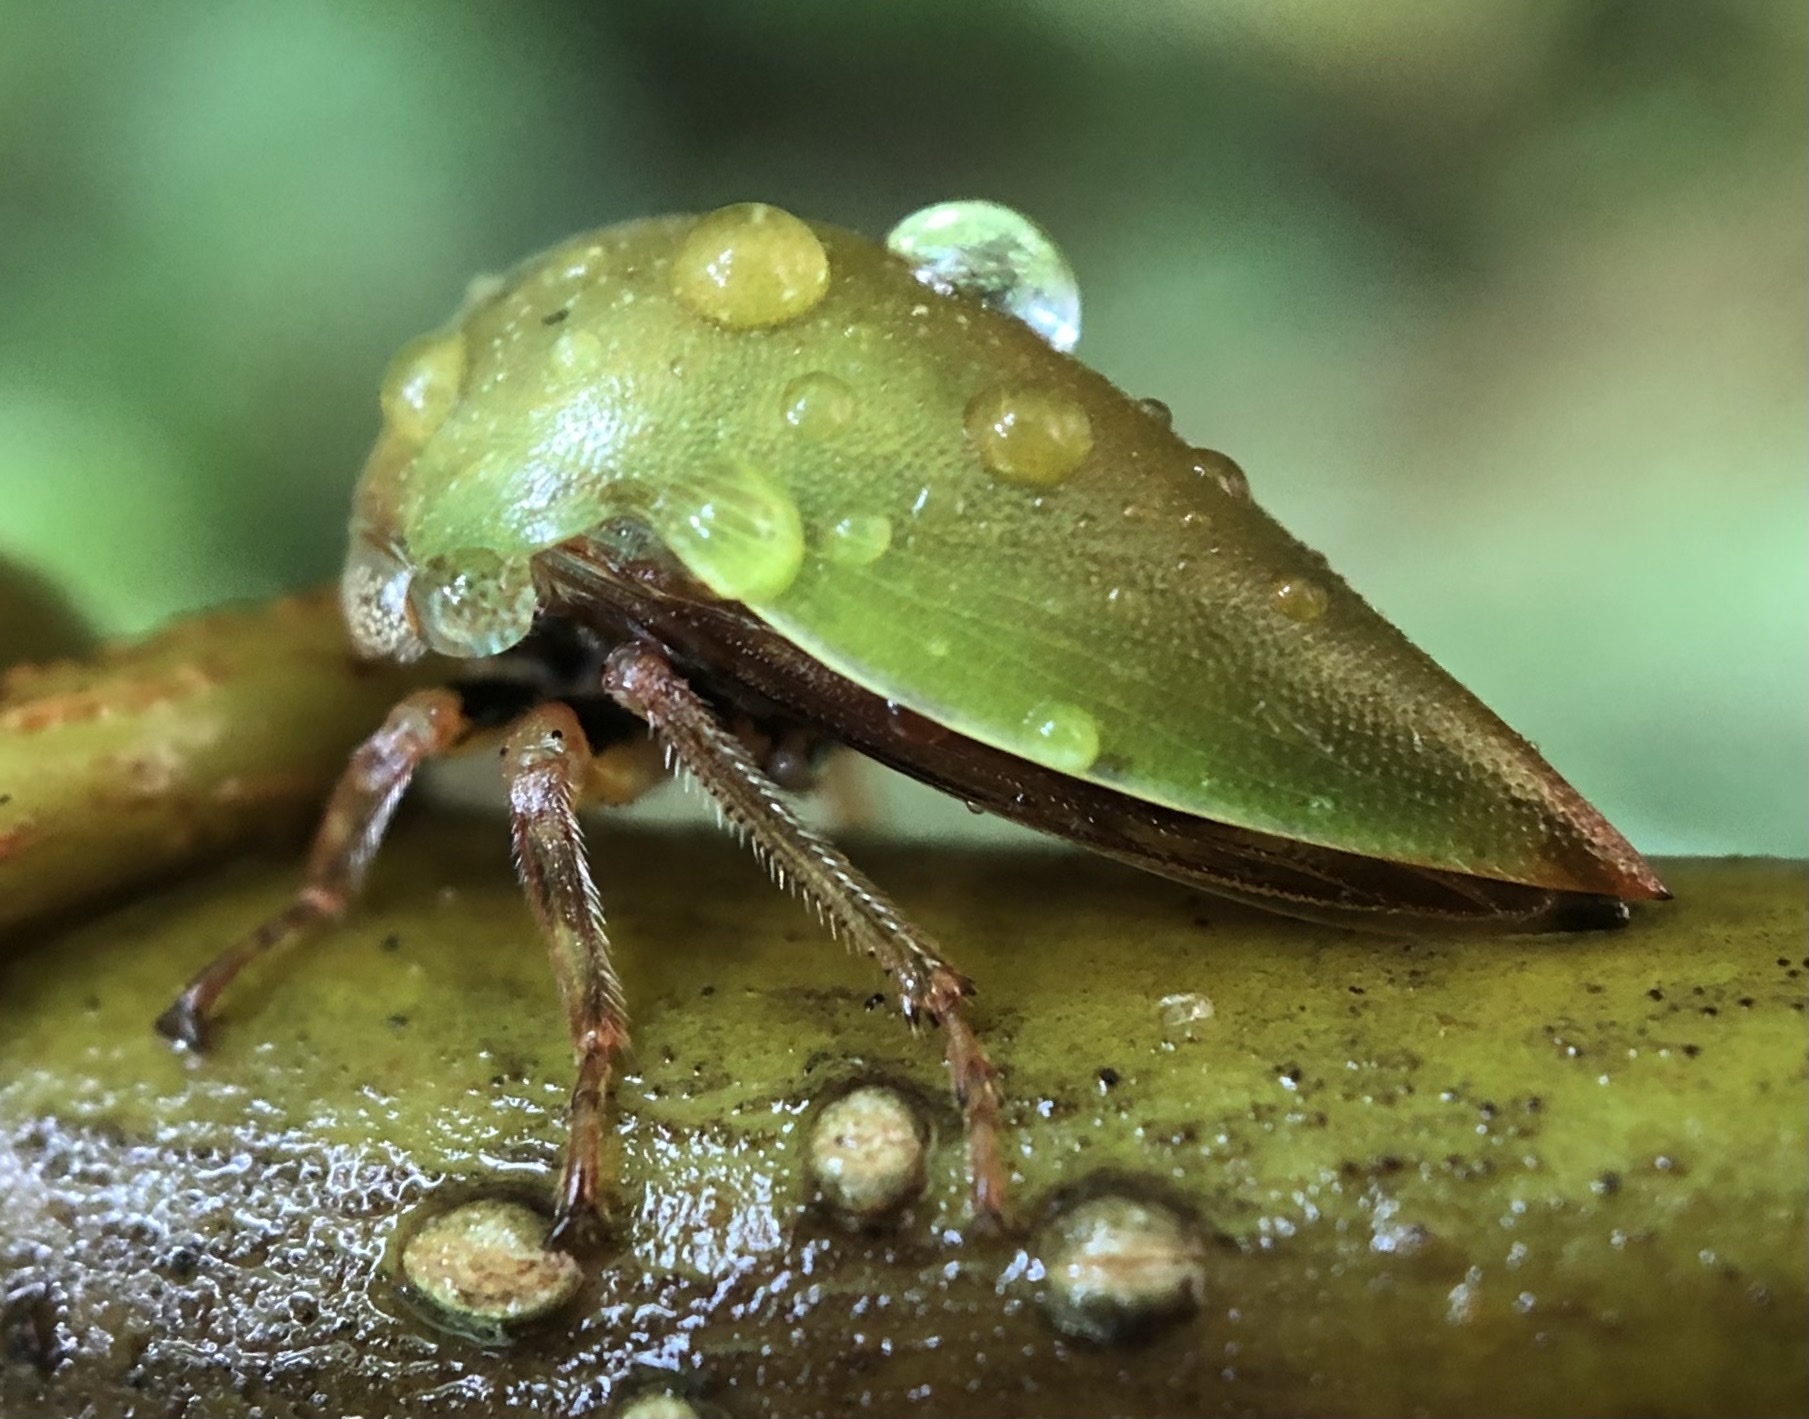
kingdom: Animalia
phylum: Arthropoda
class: Insecta
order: Hemiptera
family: Membracidae
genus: Hebetica
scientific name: Hebetica
